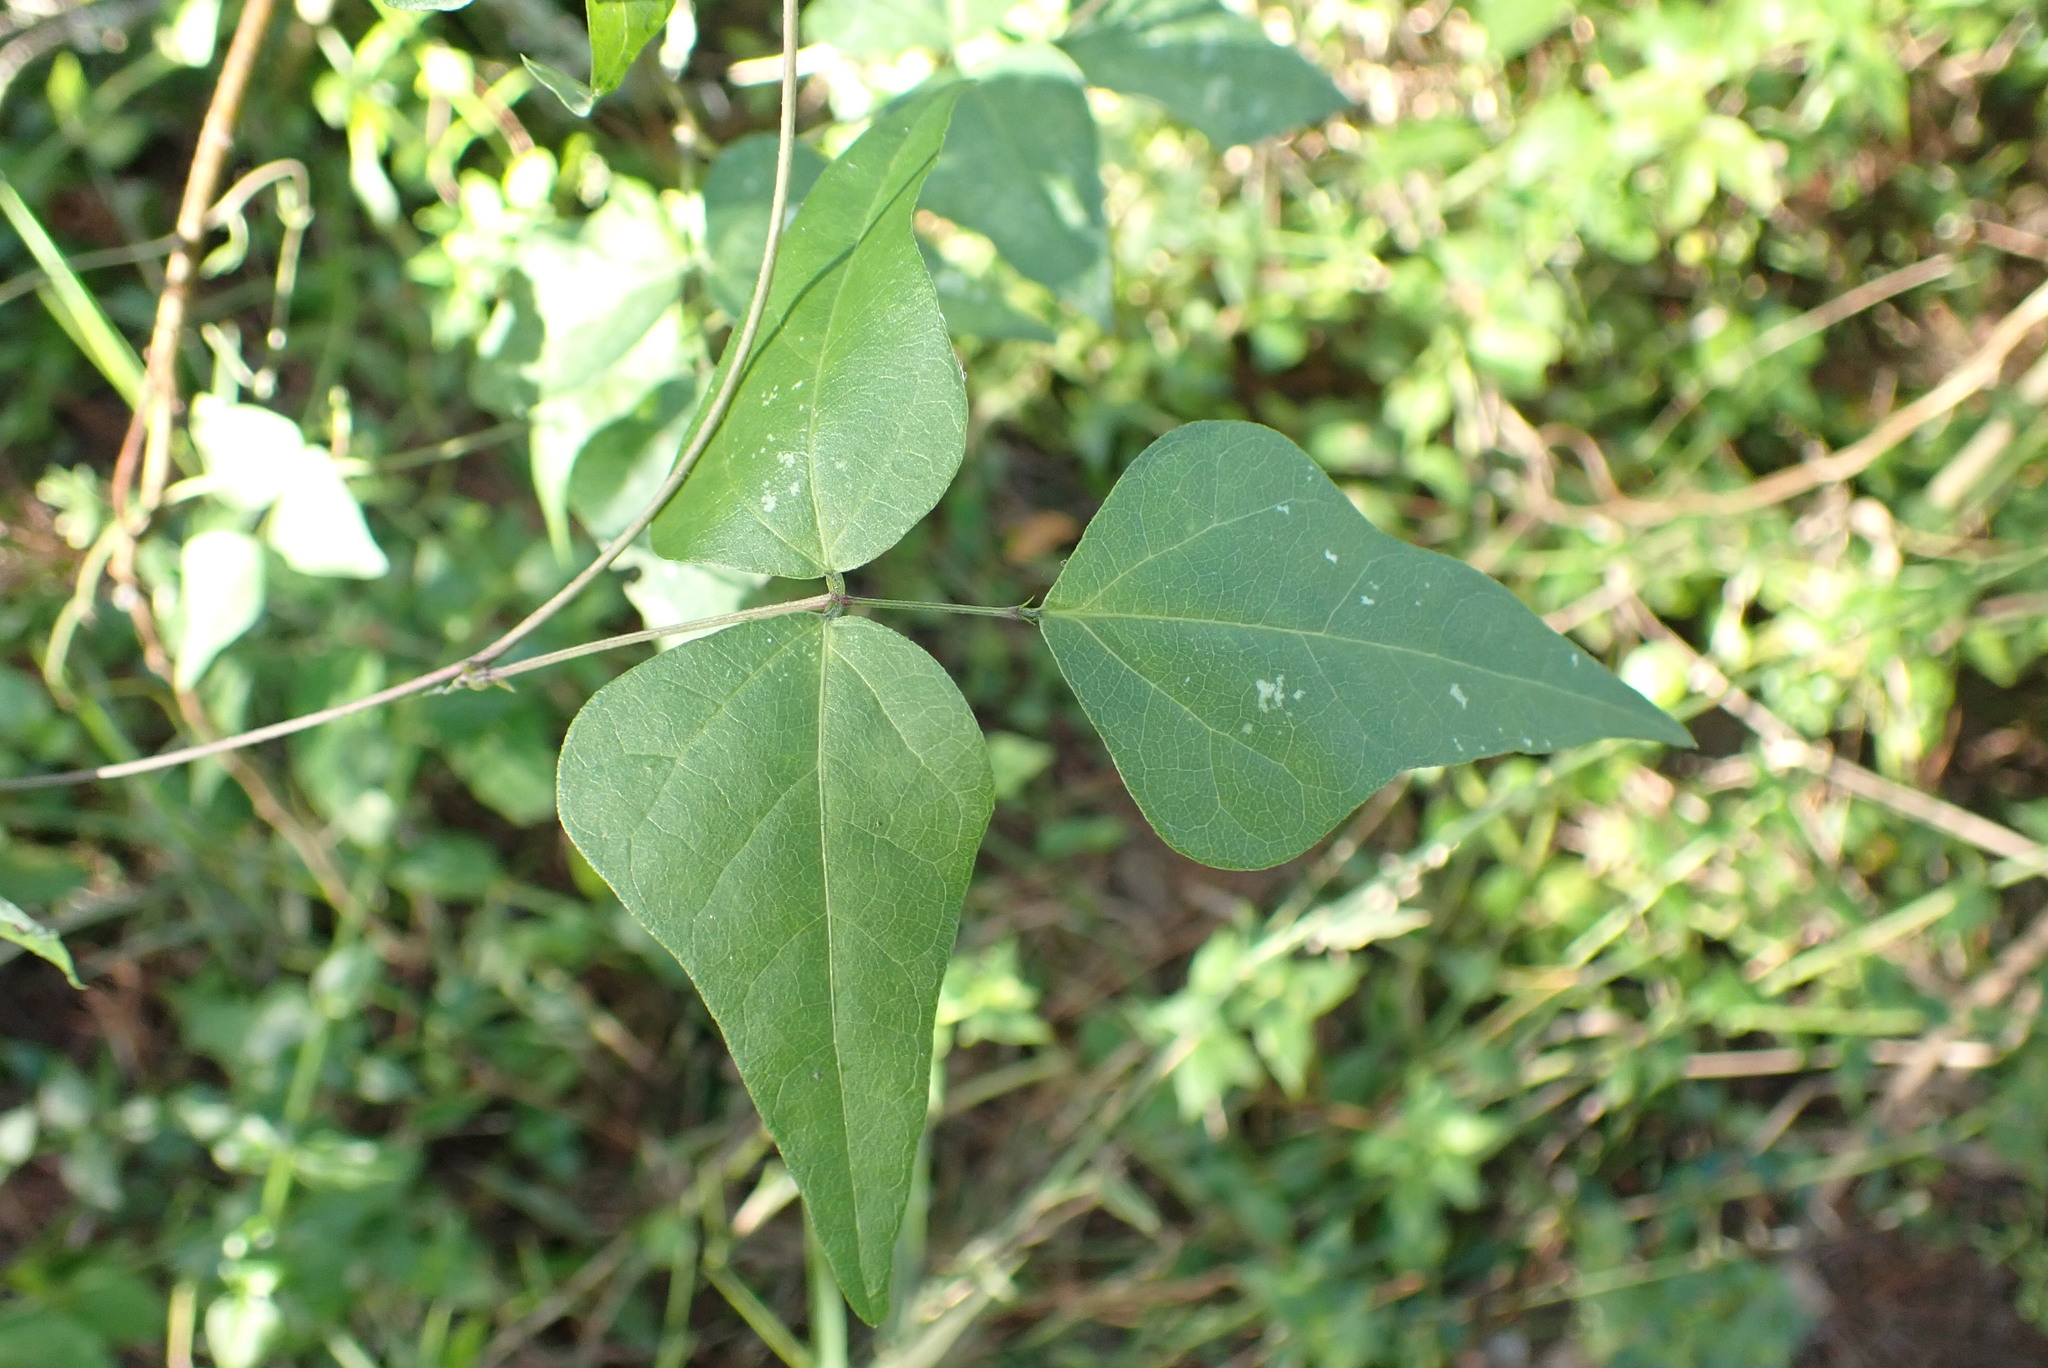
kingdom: Plantae
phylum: Tracheophyta
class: Magnoliopsida
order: Fabales
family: Fabaceae
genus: Dipogon
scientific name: Dipogon lignosus
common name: Okie bean
